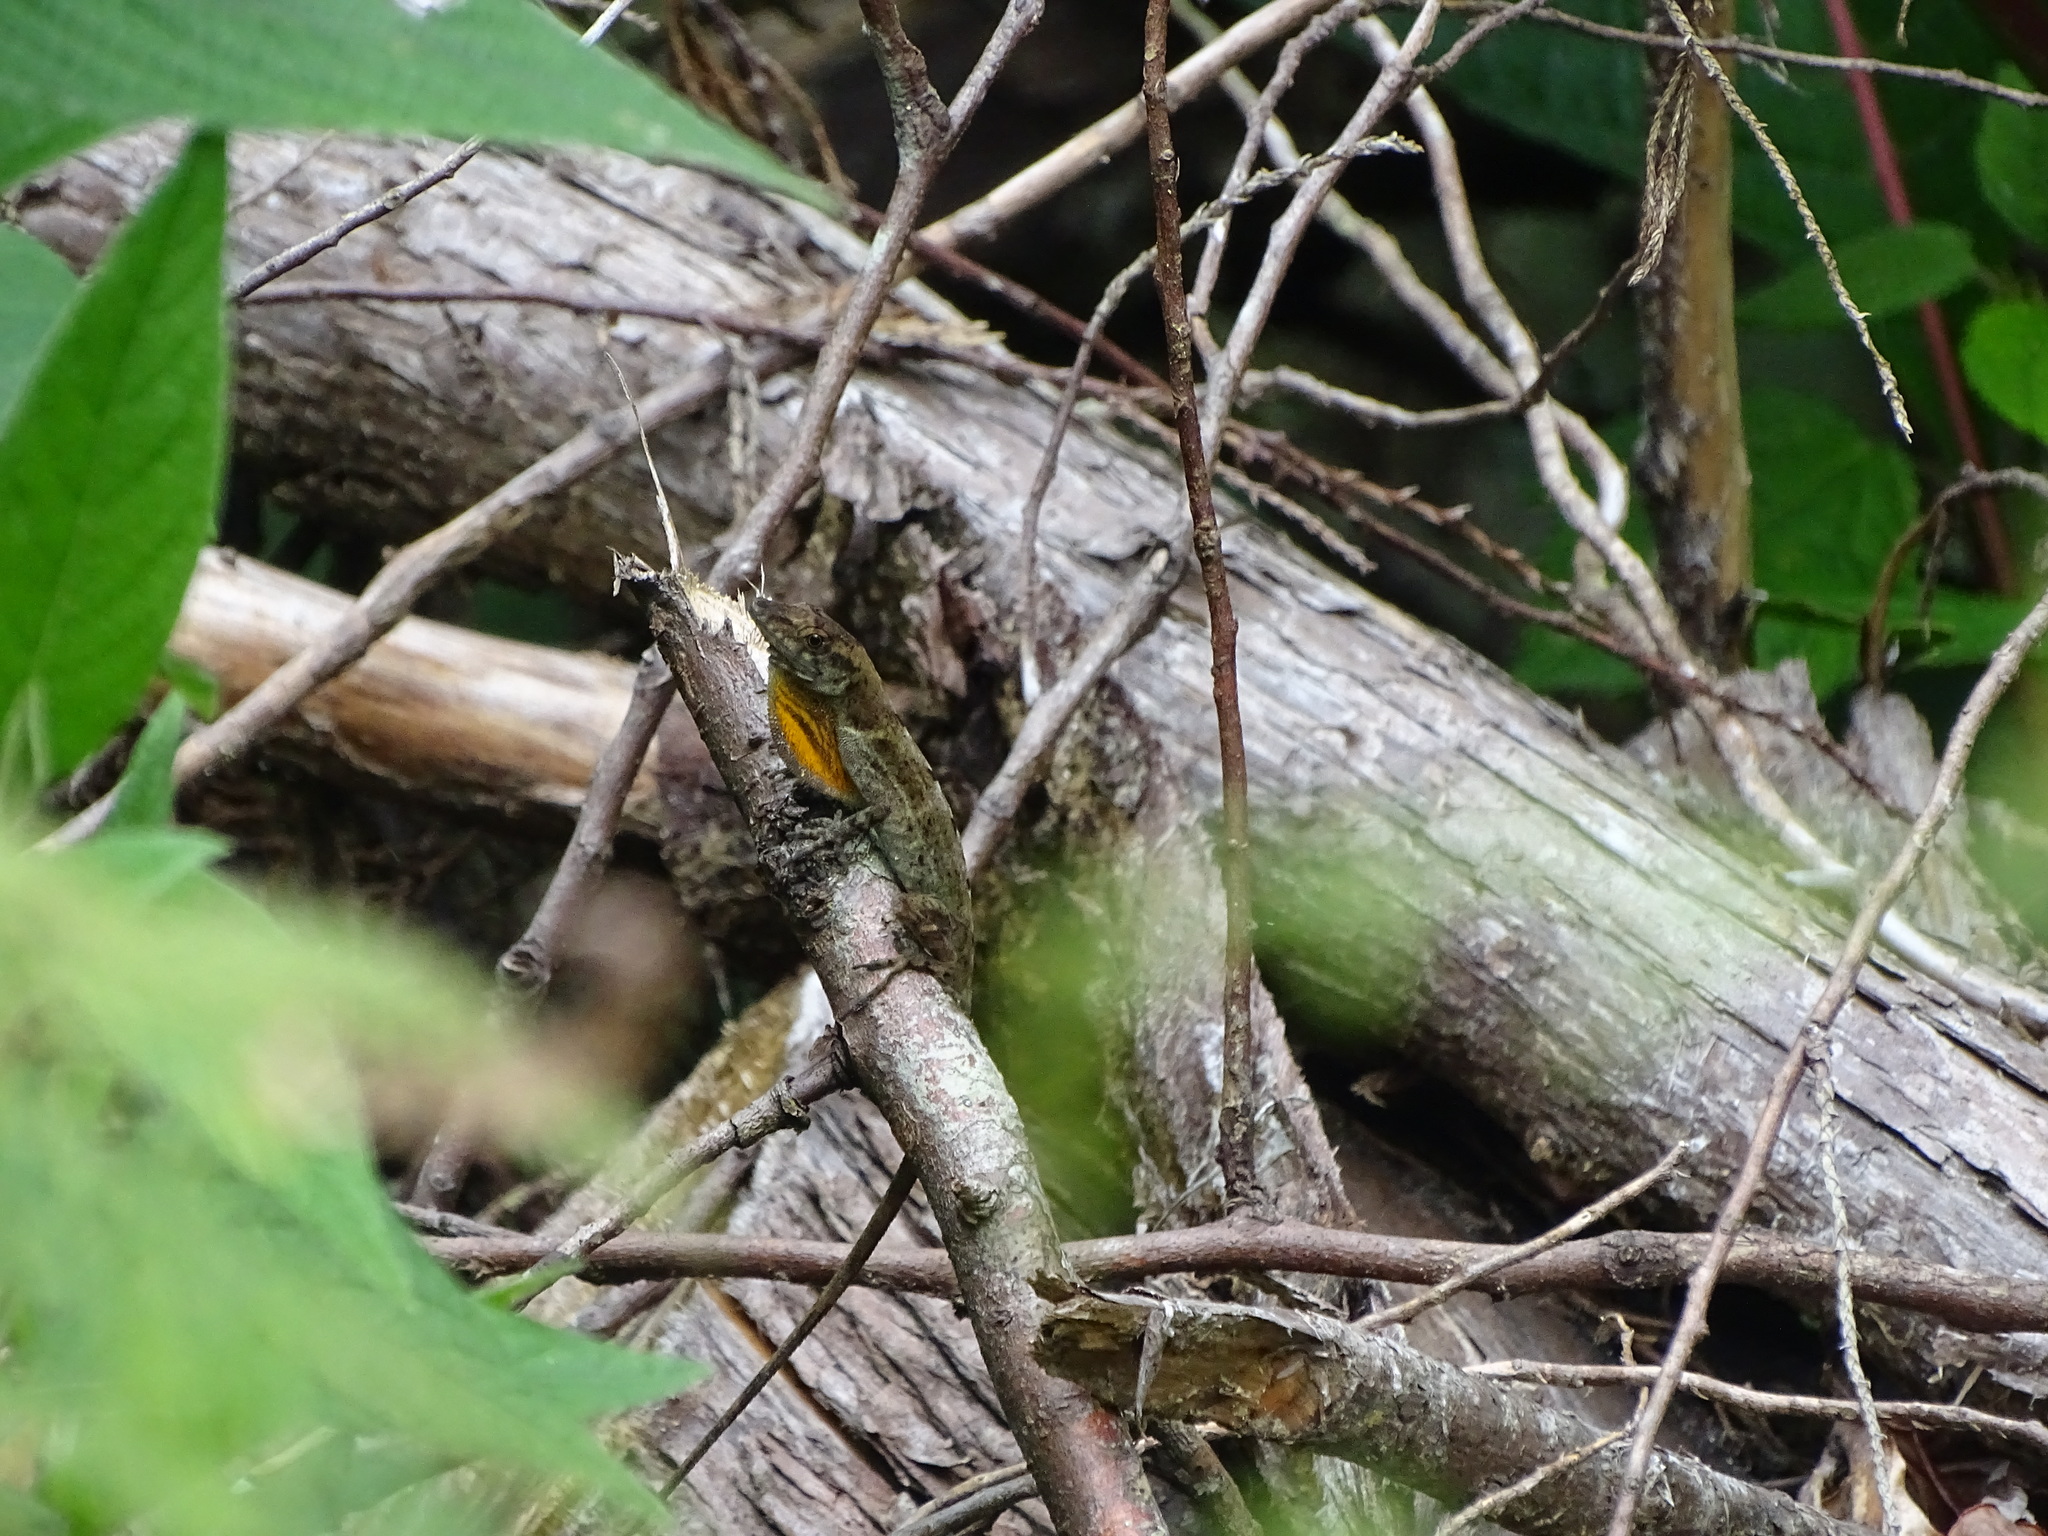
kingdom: Animalia
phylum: Chordata
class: Squamata
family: Dactyloidae
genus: Anolis
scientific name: Anolis polylepis
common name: Many-scaled anole
